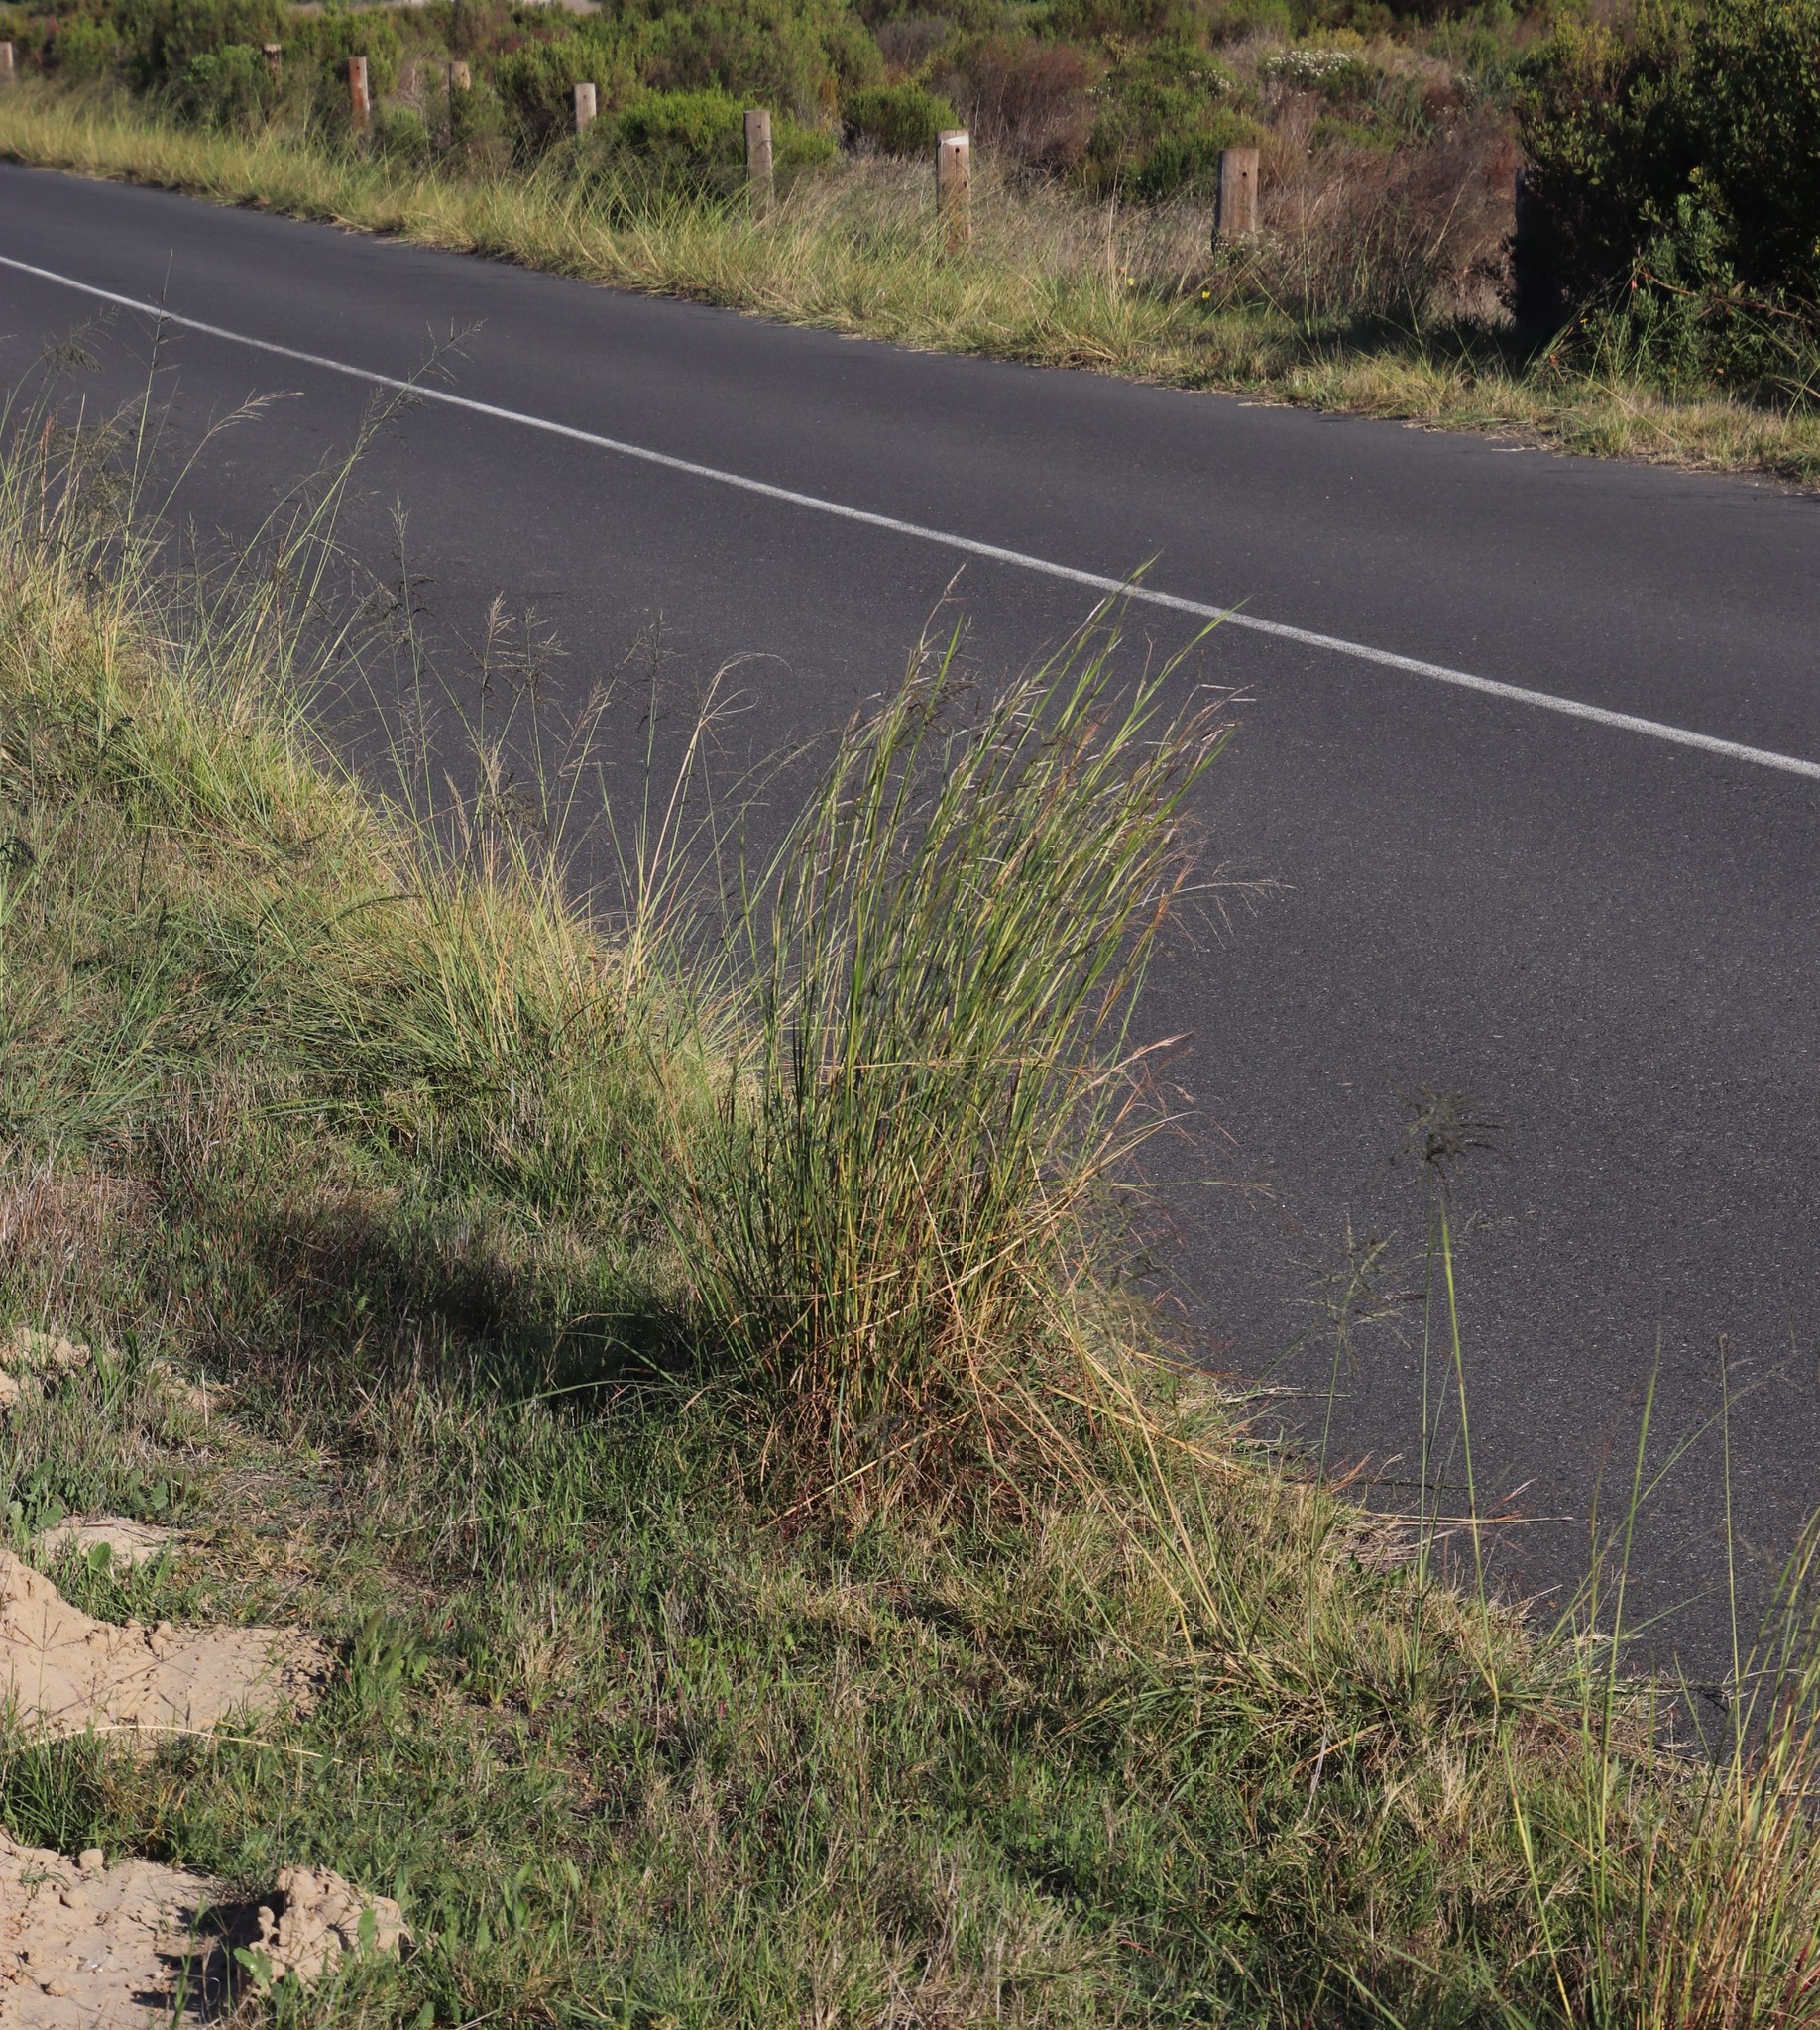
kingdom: Plantae
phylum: Tracheophyta
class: Liliopsida
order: Poales
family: Poaceae
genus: Eragrostis
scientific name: Eragrostis curvula
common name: African love-grass
